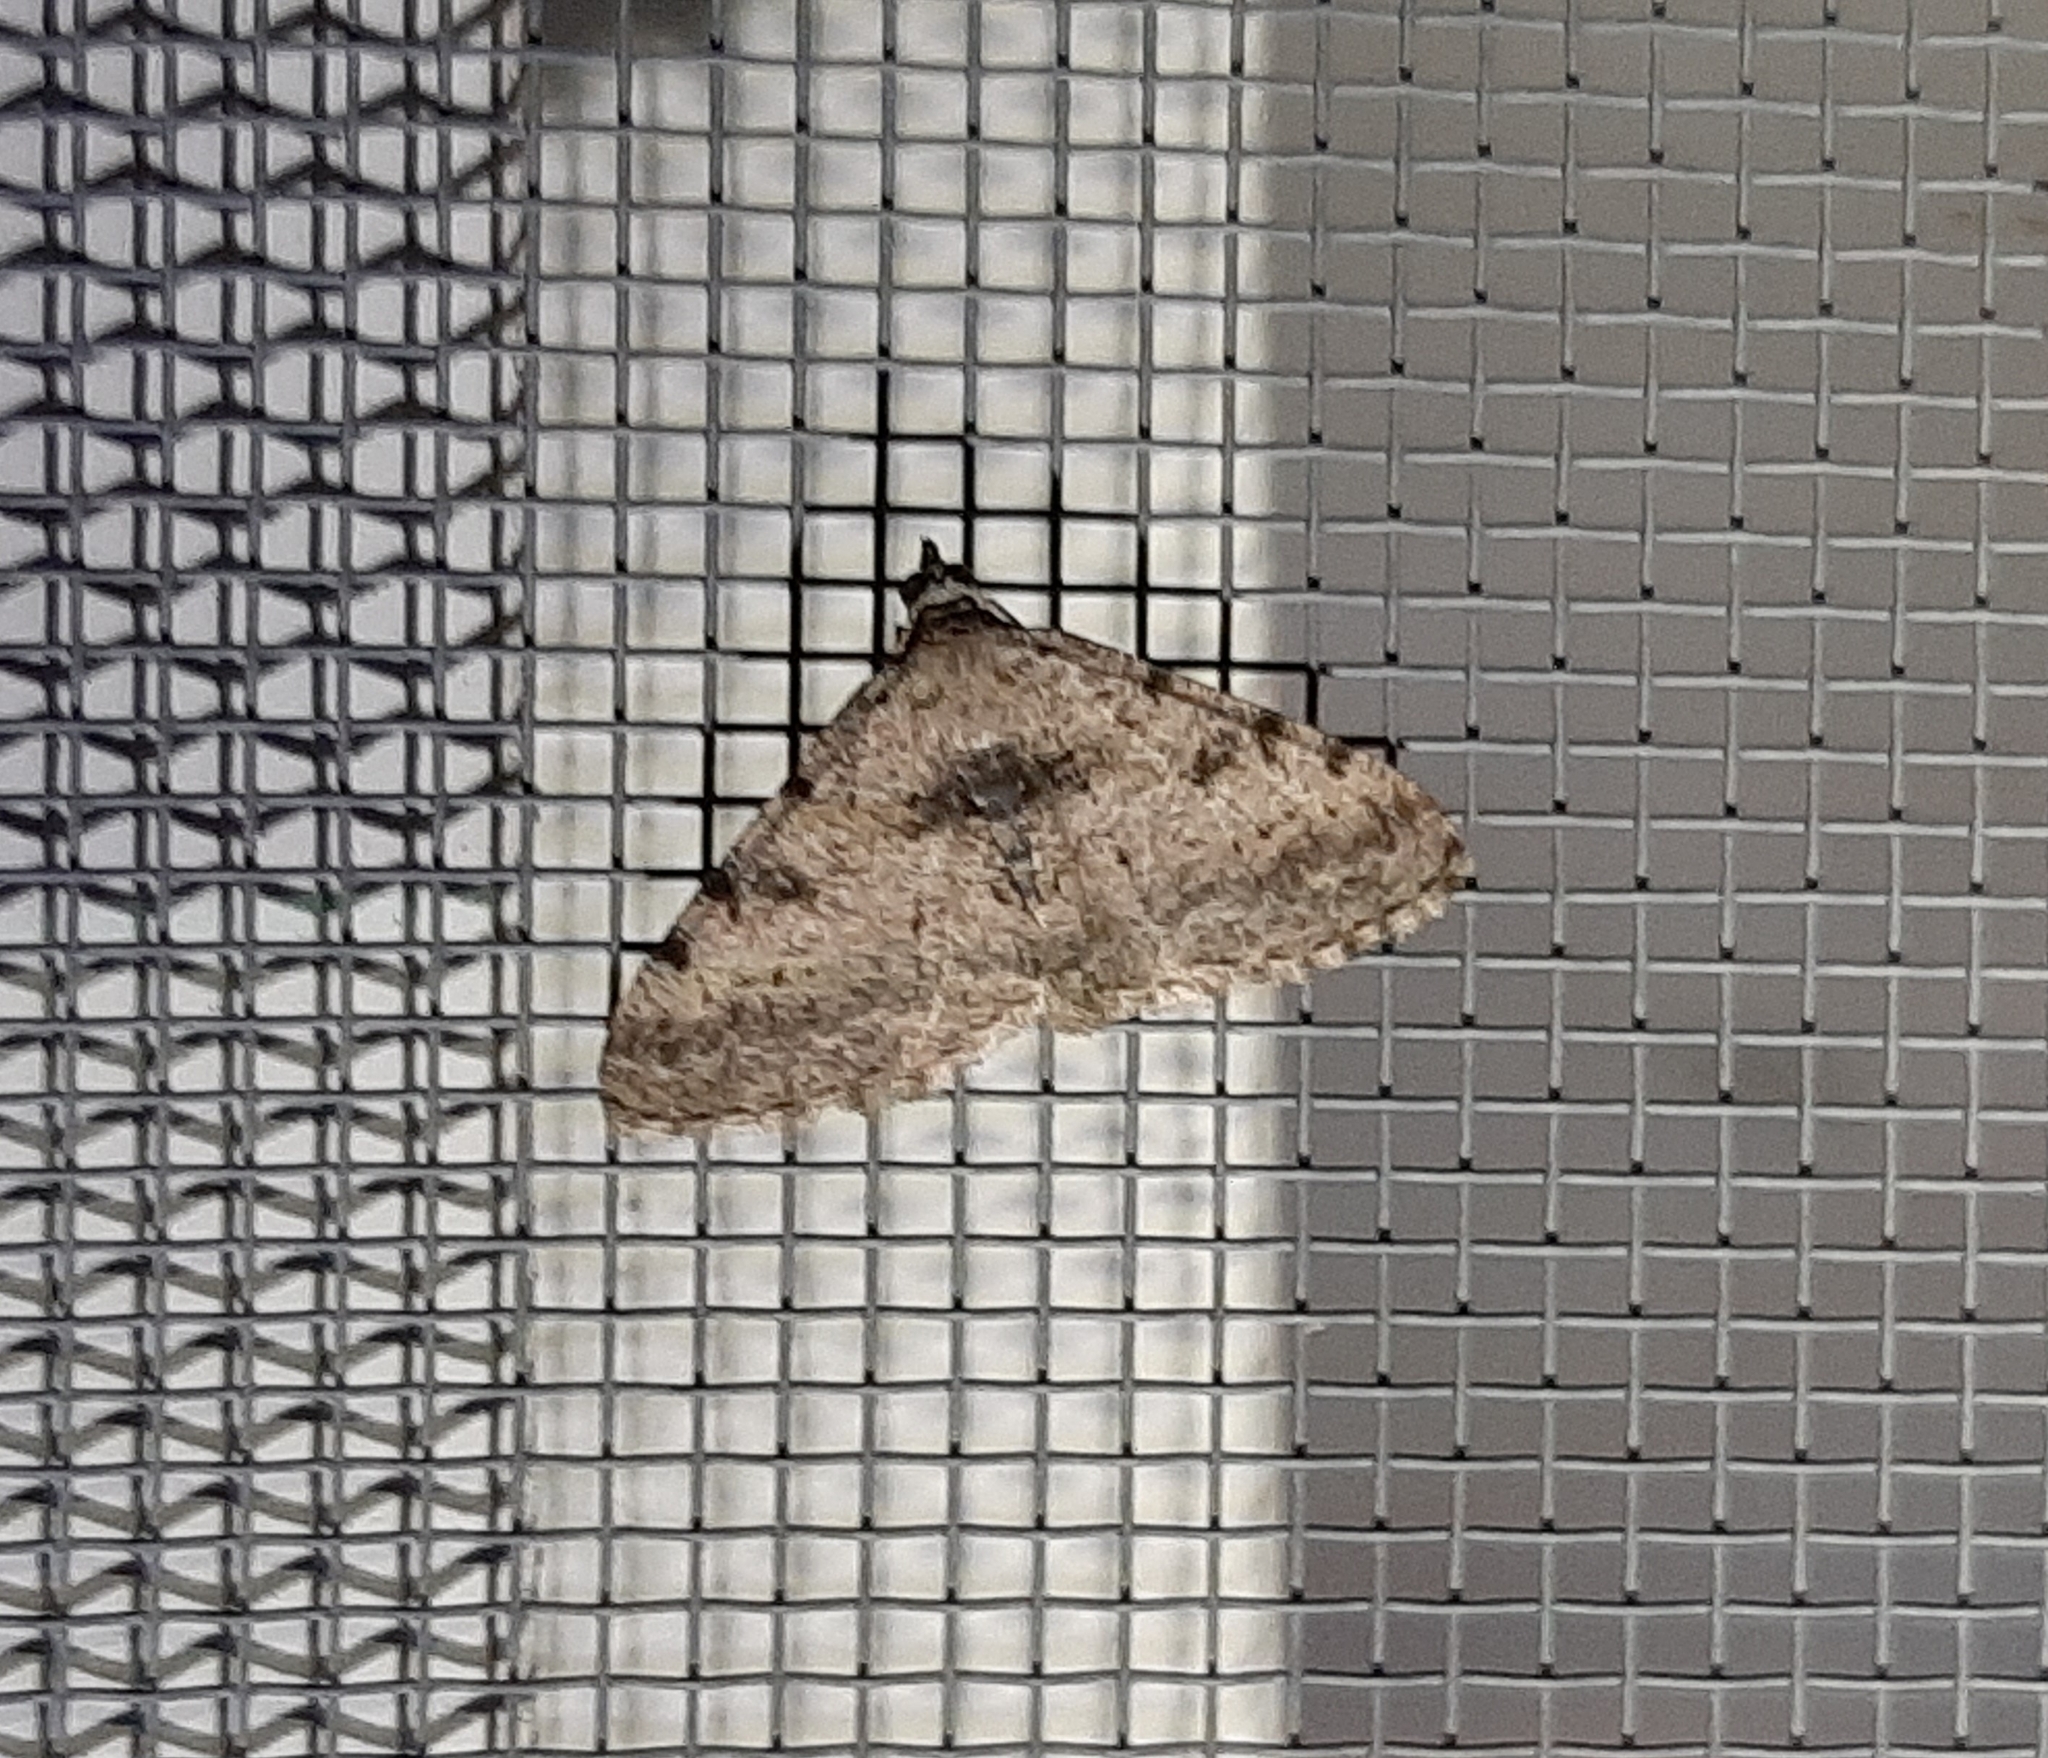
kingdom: Animalia
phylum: Arthropoda
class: Insecta
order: Lepidoptera
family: Geometridae
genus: Digrammia
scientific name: Digrammia gnophosaria
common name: Hollow-spotted angle
